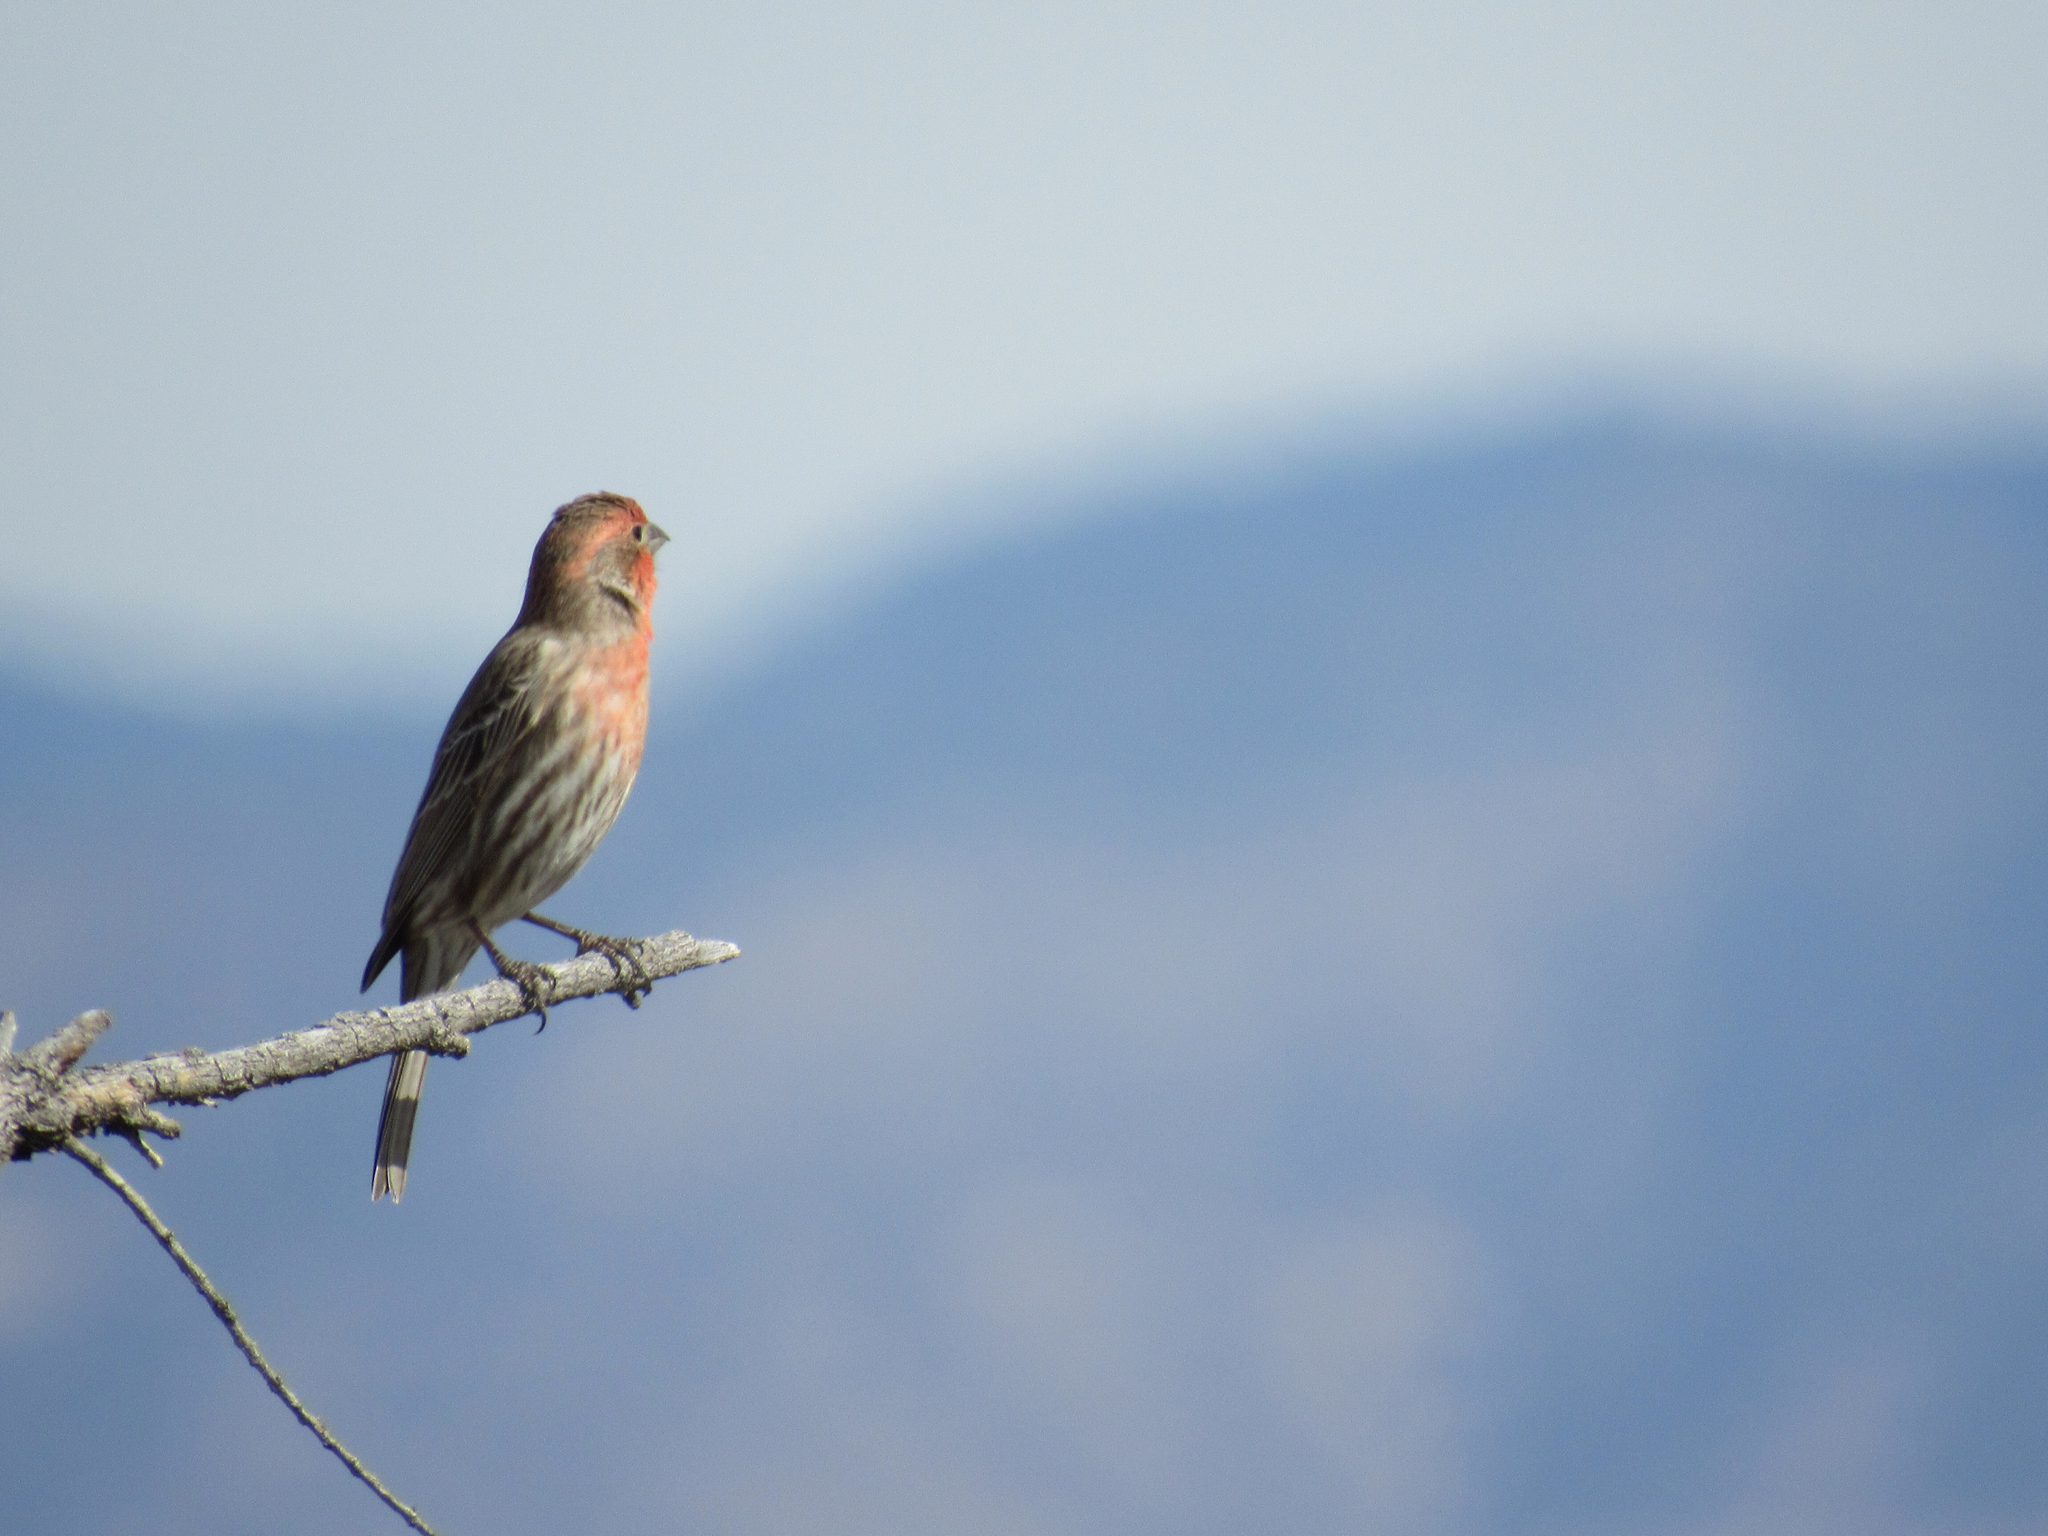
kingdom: Animalia
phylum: Chordata
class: Aves
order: Passeriformes
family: Fringillidae
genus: Haemorhous
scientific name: Haemorhous mexicanus
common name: House finch
